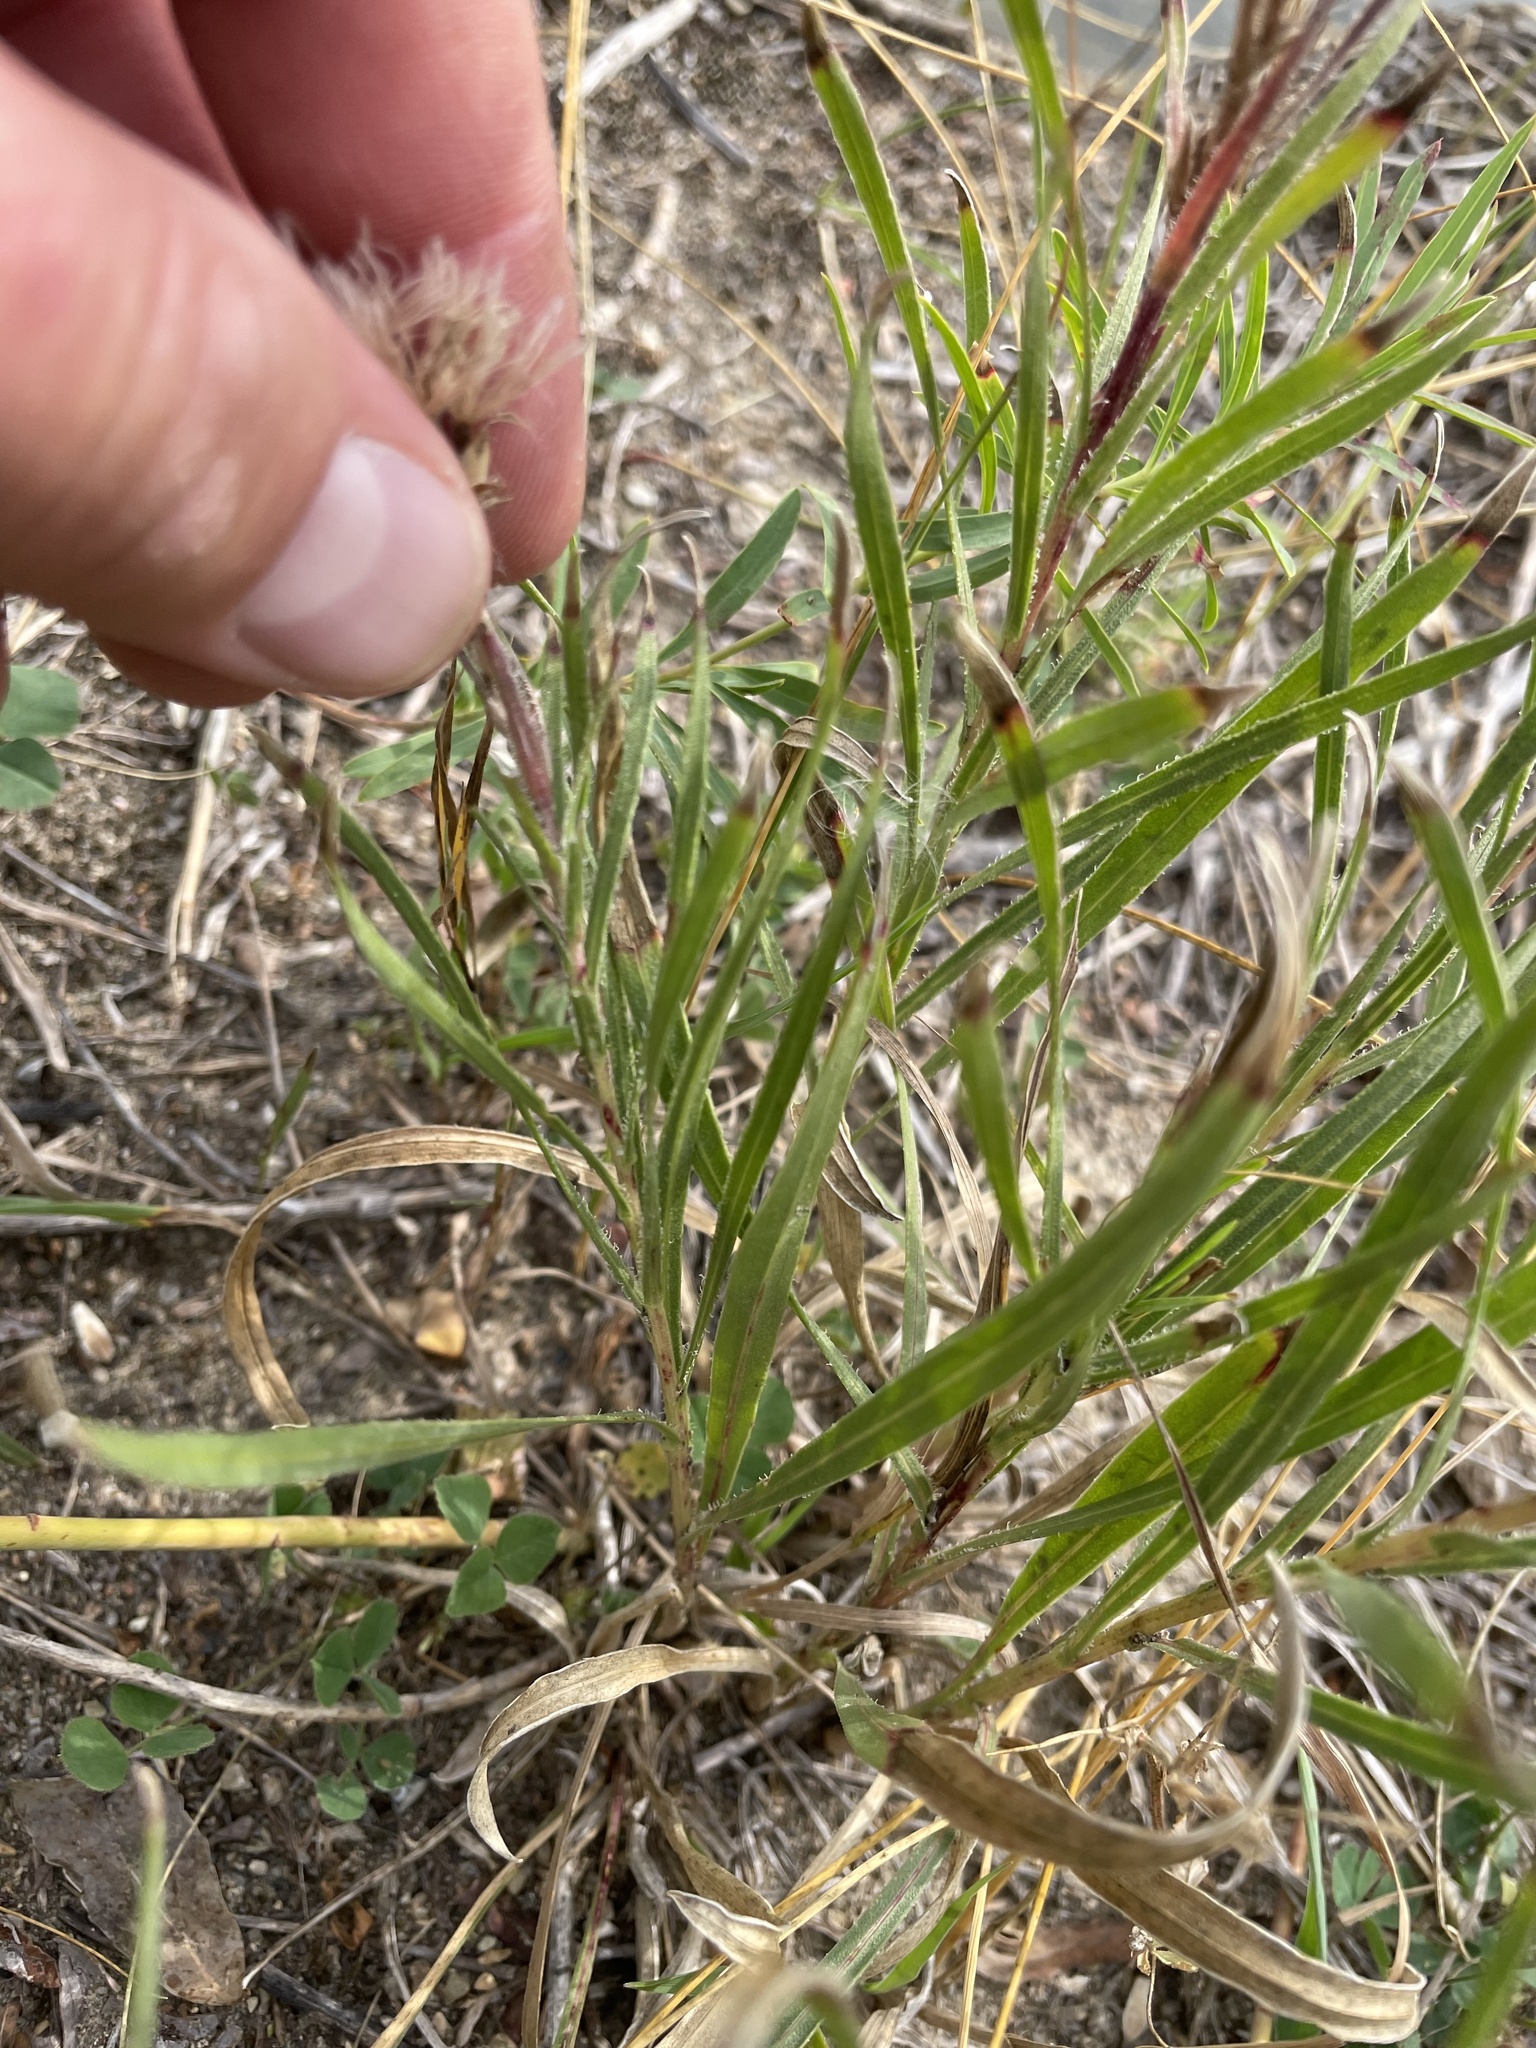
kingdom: Plantae
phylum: Tracheophyta
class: Magnoliopsida
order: Asterales
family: Asteraceae
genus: Liatris
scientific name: Liatris punctata
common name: Dotted gayfeather
